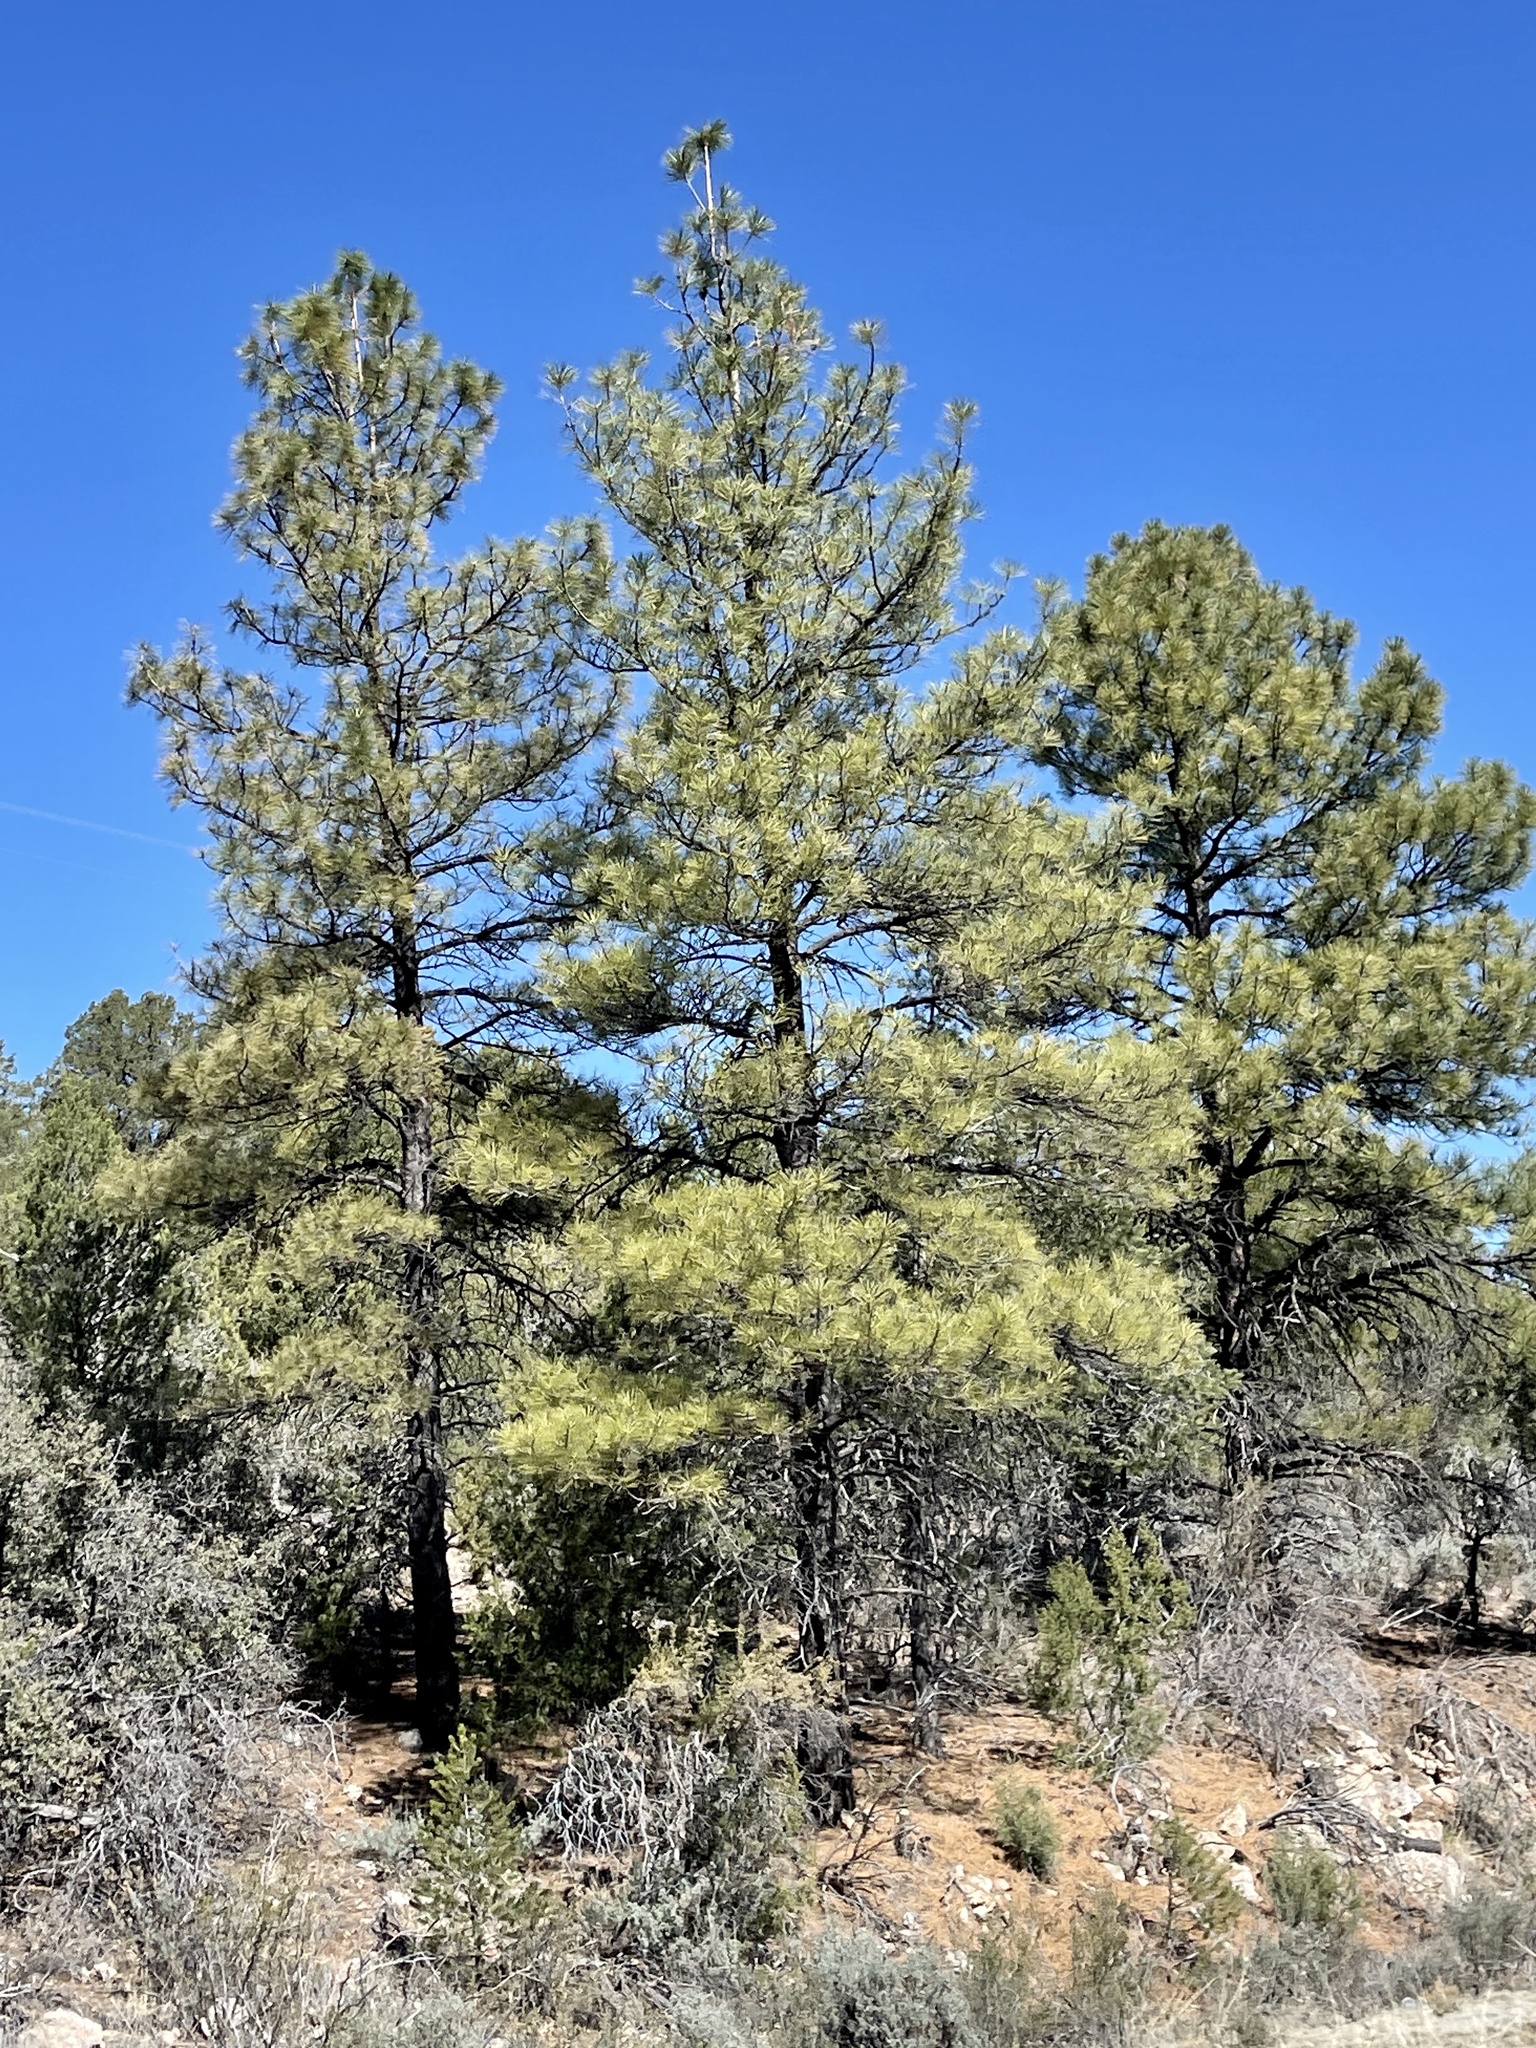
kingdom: Plantae
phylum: Tracheophyta
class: Pinopsida
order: Pinales
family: Pinaceae
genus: Pinus
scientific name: Pinus ponderosa
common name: Western yellow-pine
